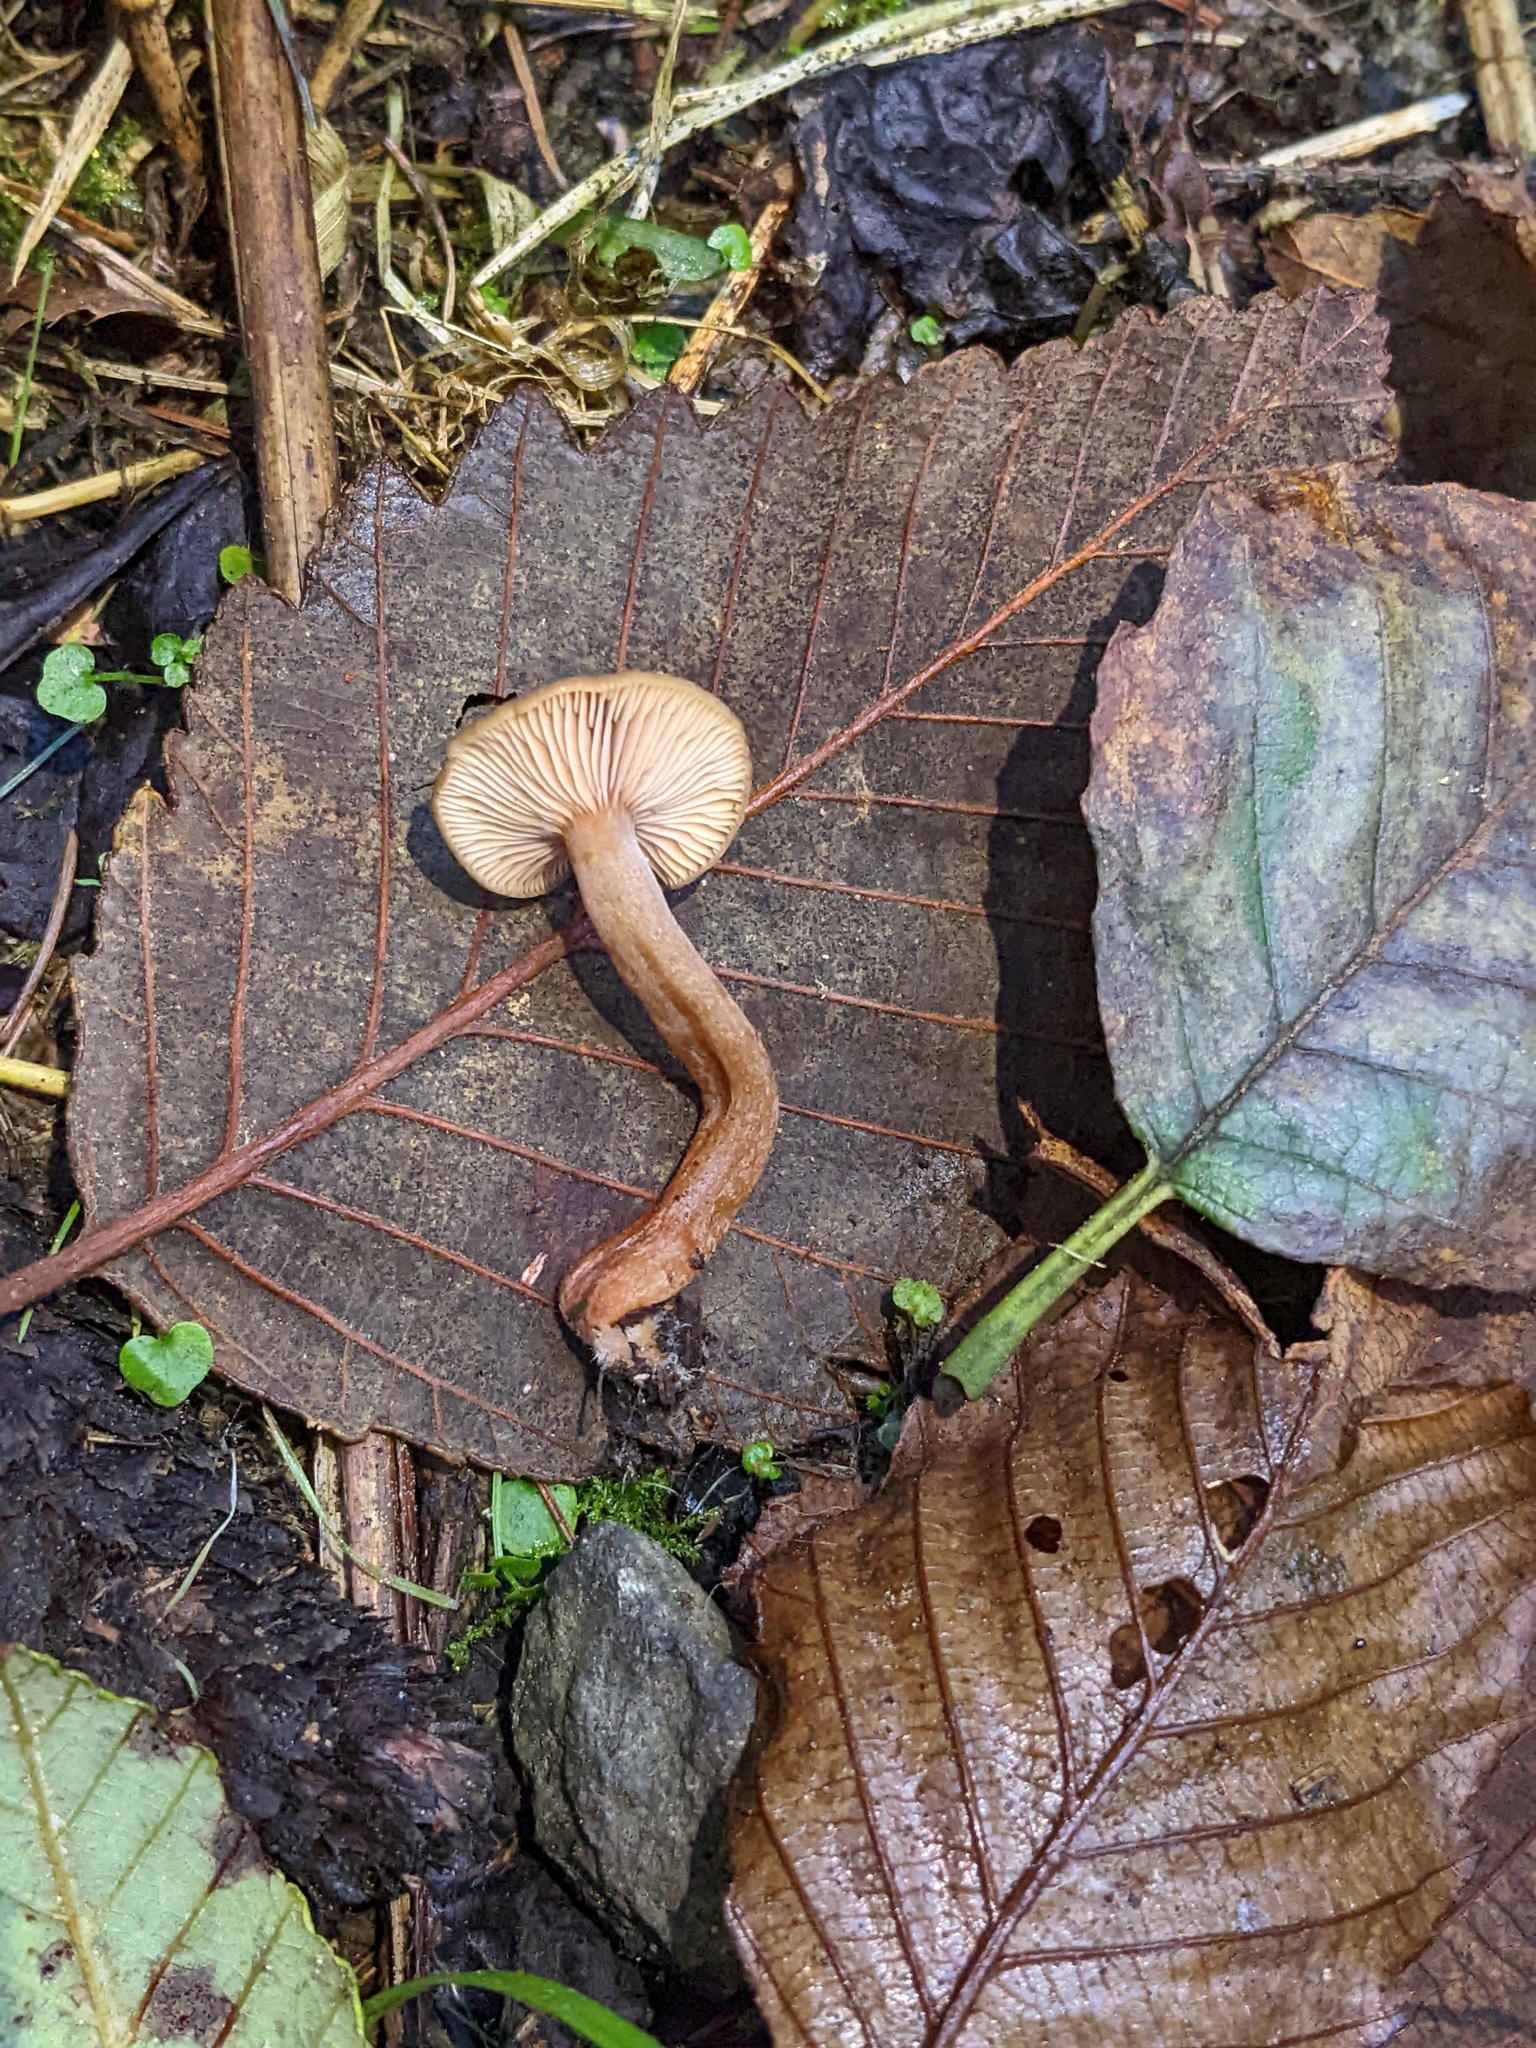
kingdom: Fungi
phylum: Basidiomycota
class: Agaricomycetes
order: Russulales
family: Russulaceae
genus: Lactarius
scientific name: Lactarius occidentalis
